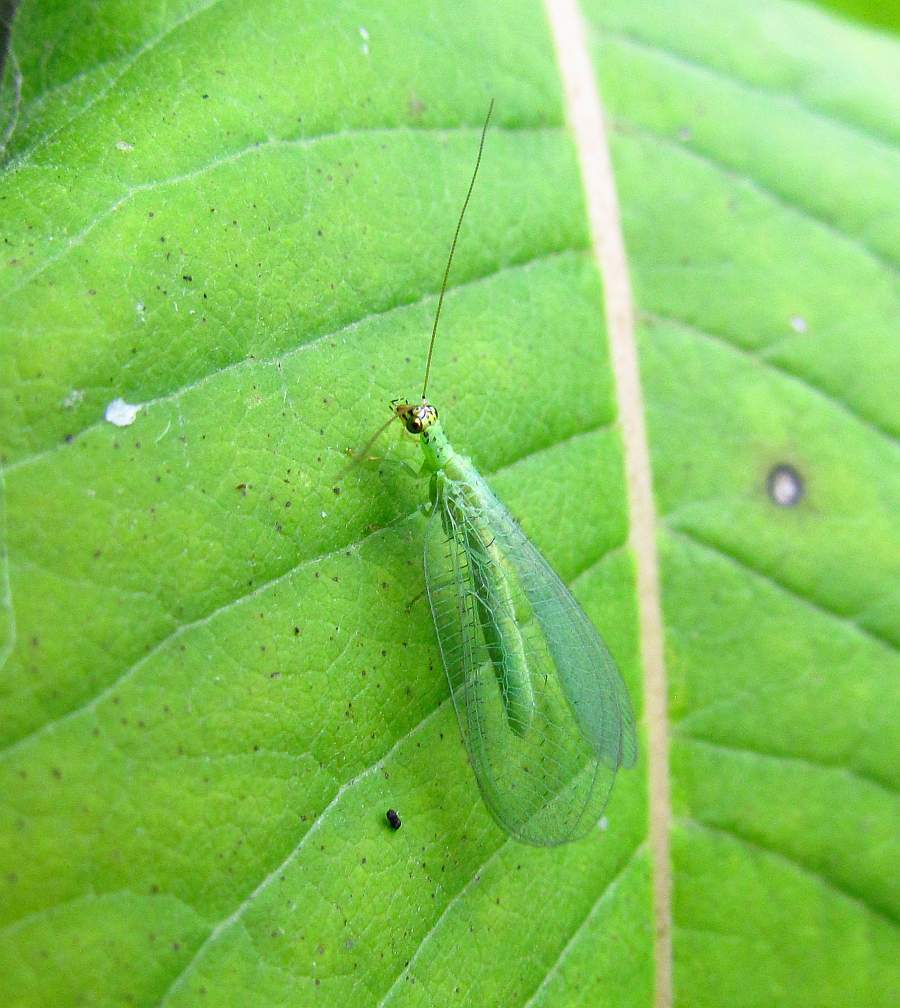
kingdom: Animalia
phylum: Arthropoda
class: Insecta
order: Neuroptera
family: Chrysopidae
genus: Chrysopa
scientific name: Chrysopa oculata
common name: Golden-eyed lacewing
